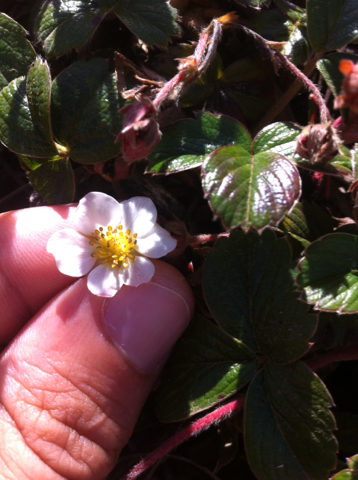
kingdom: Plantae
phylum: Tracheophyta
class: Magnoliopsida
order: Rosales
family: Rosaceae
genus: Fragaria
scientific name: Fragaria chiloensis
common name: Beach strawberry
